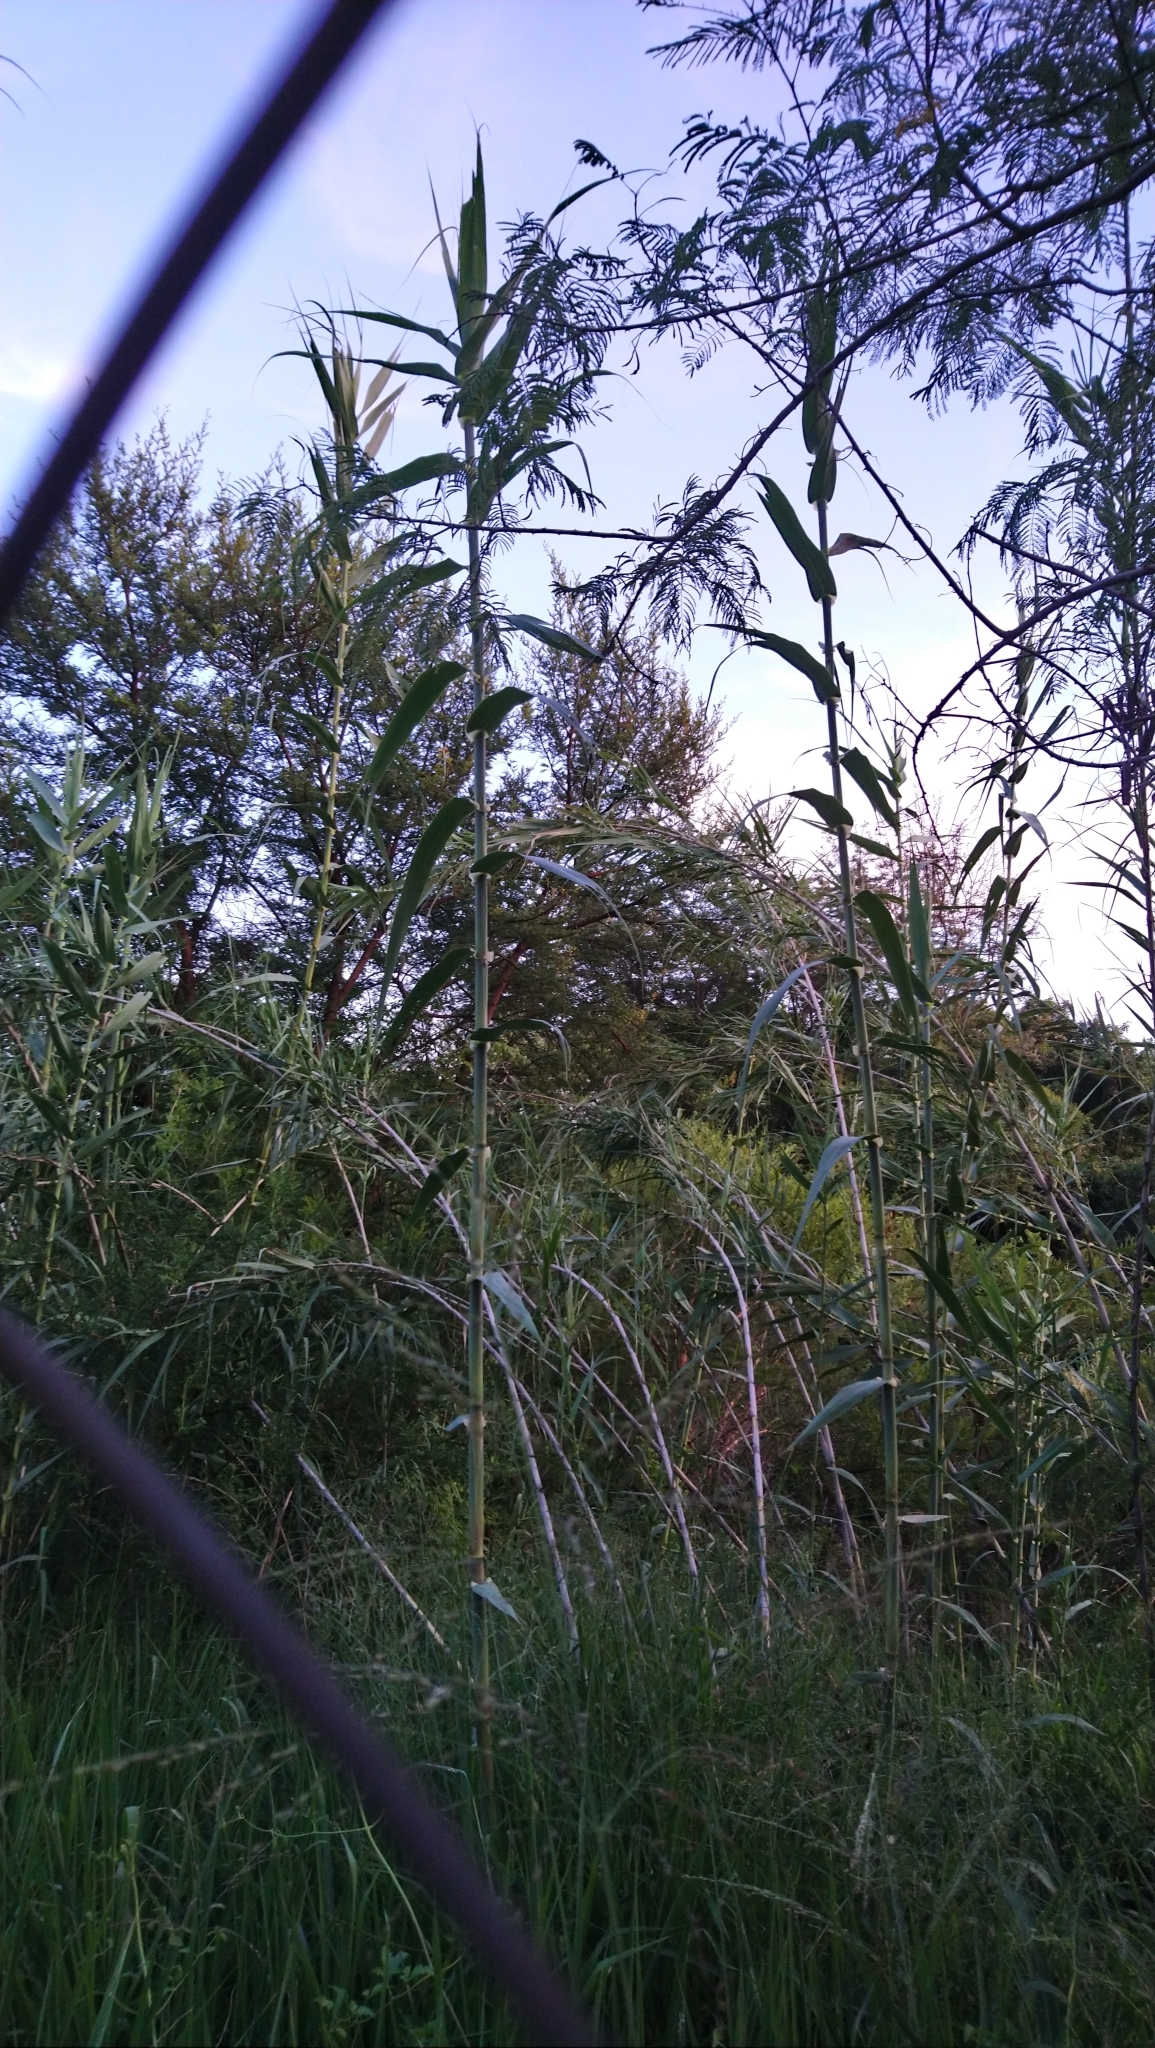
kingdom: Plantae
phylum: Tracheophyta
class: Liliopsida
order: Poales
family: Poaceae
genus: Arundo
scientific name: Arundo donax
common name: Giant reed
